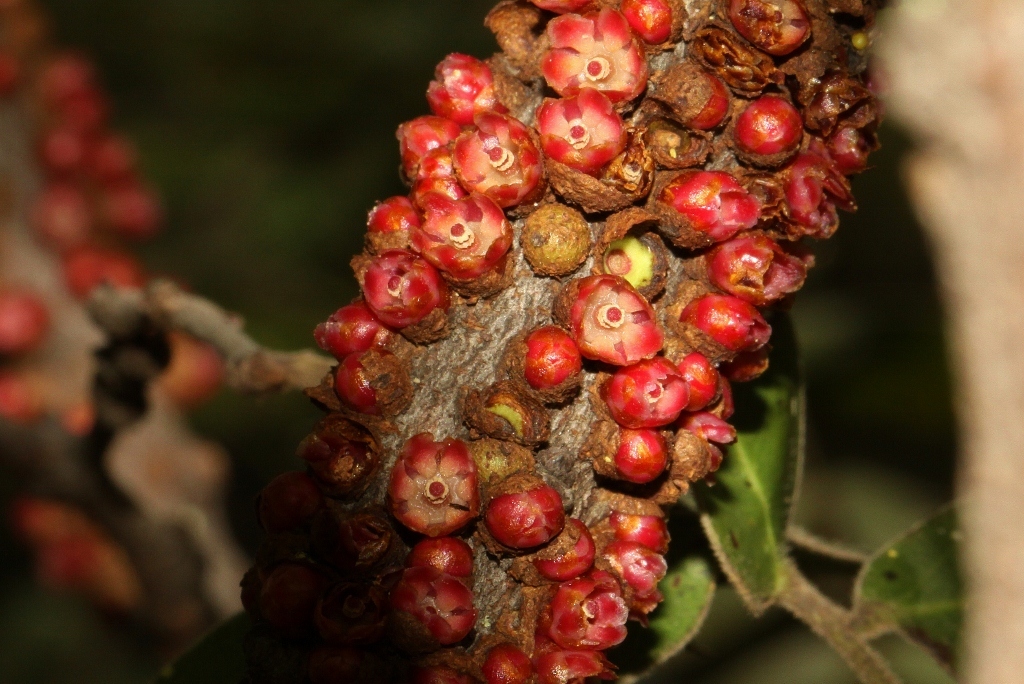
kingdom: Plantae
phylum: Tracheophyta
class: Magnoliopsida
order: Cucurbitales
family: Apodanthaceae
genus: Pilostyles
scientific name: Pilostyles aethiopica
